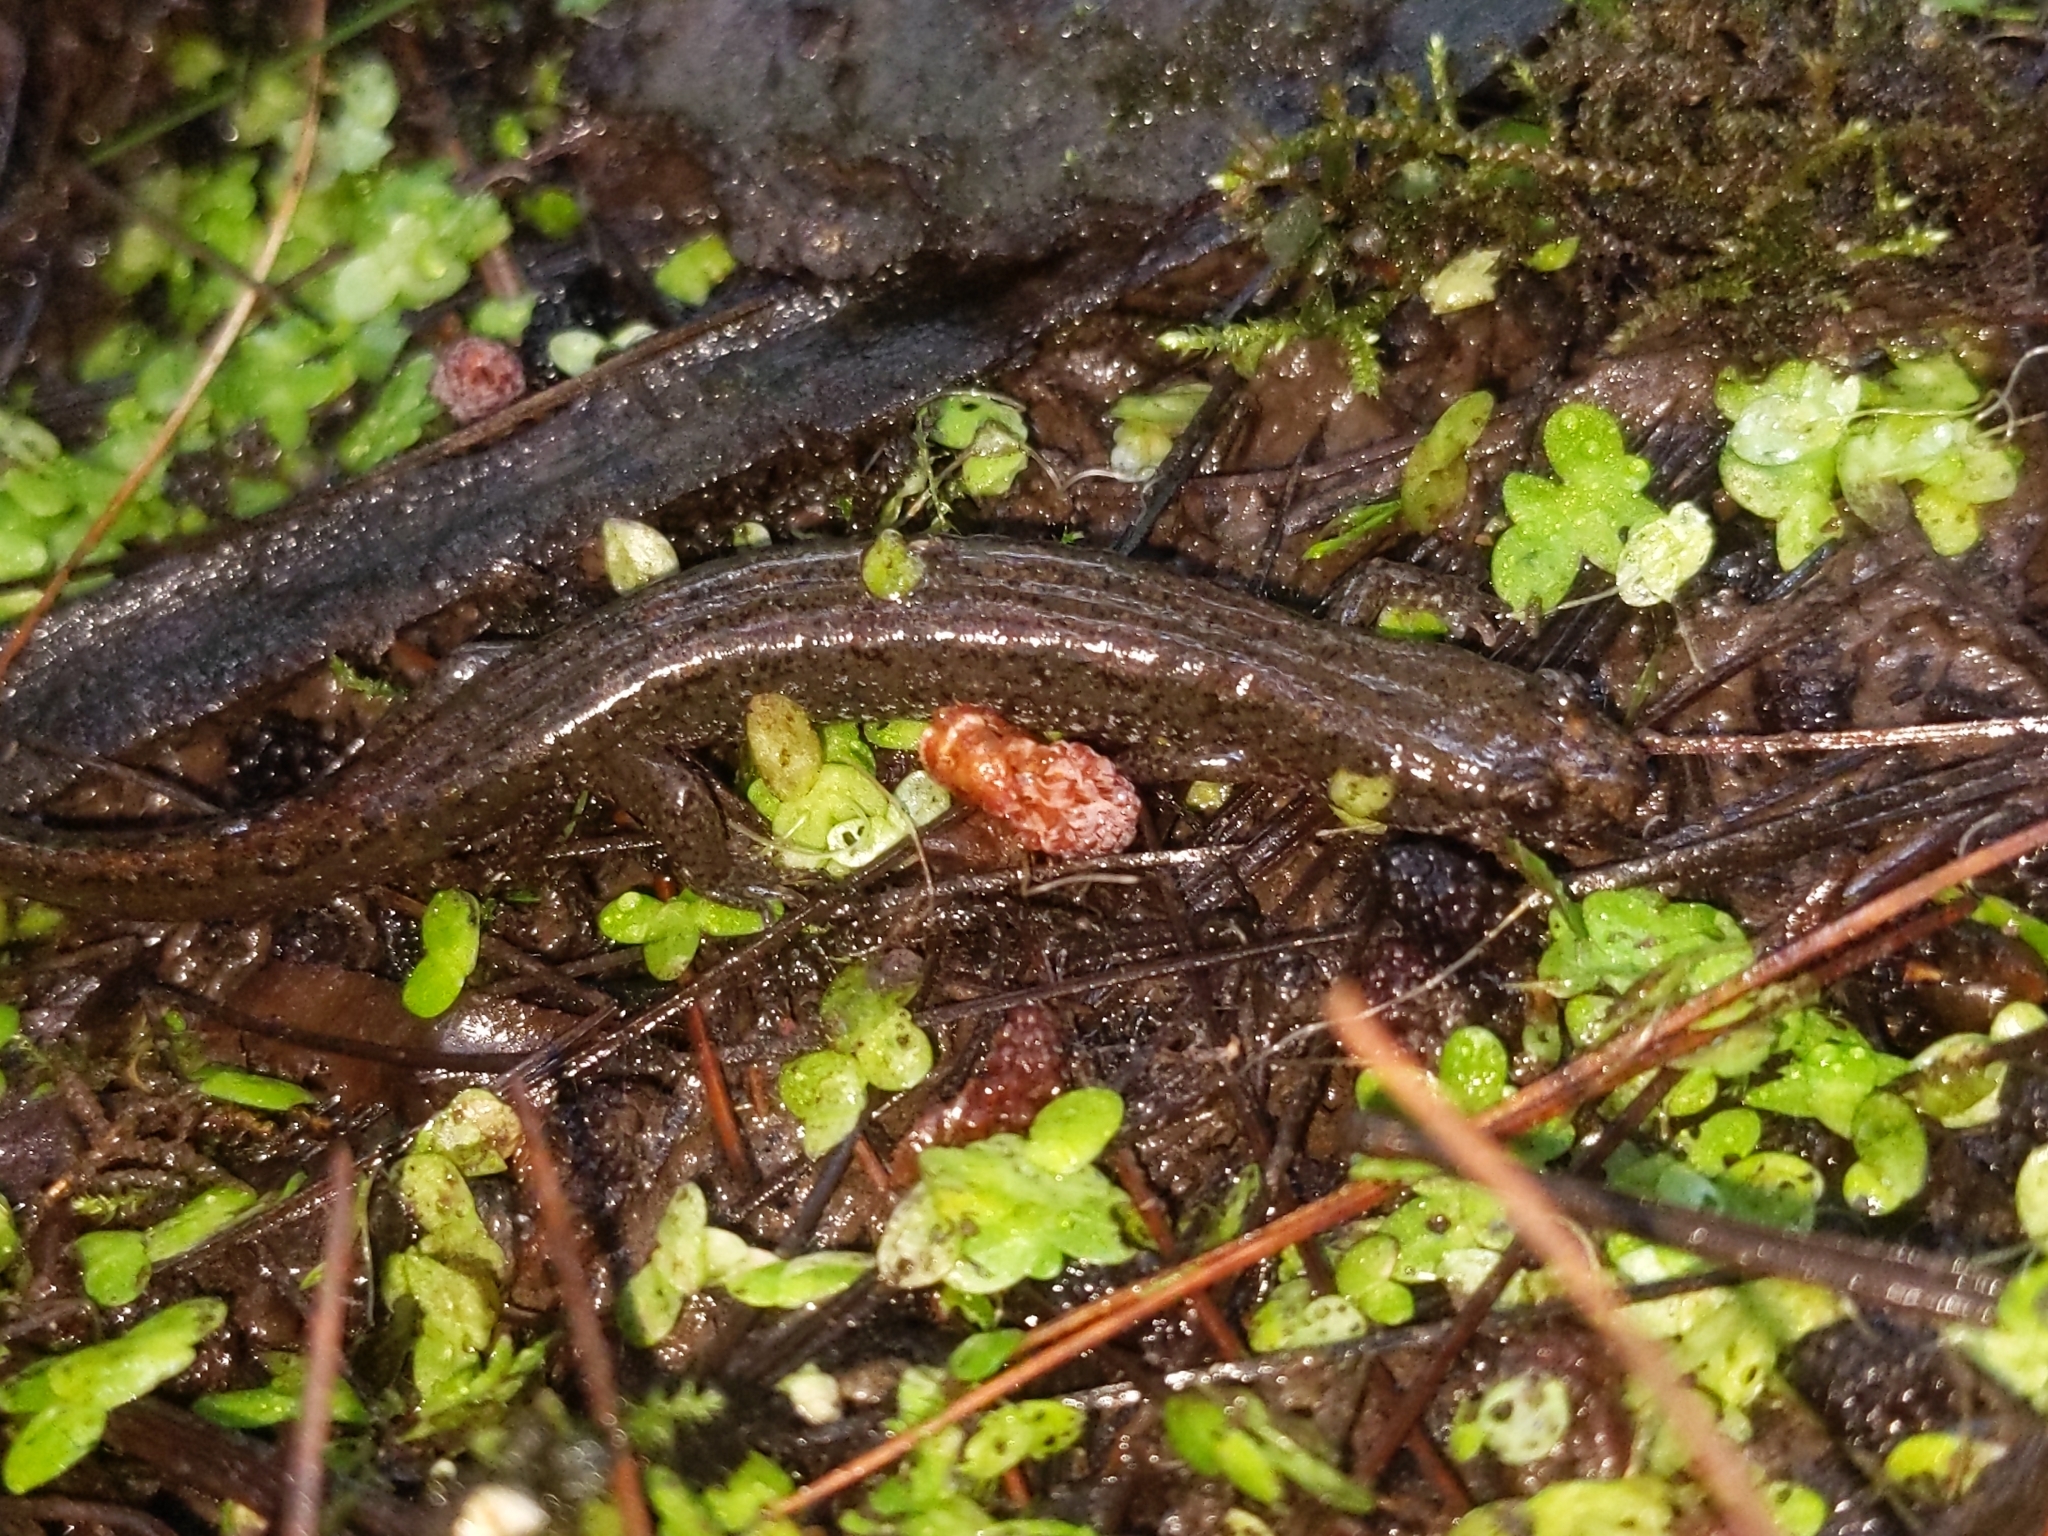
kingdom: Animalia
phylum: Chordata
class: Amphibia
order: Caudata
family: Plethodontidae
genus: Desmognathus
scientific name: Desmognathus fuscus
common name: Northern dusky salamander
